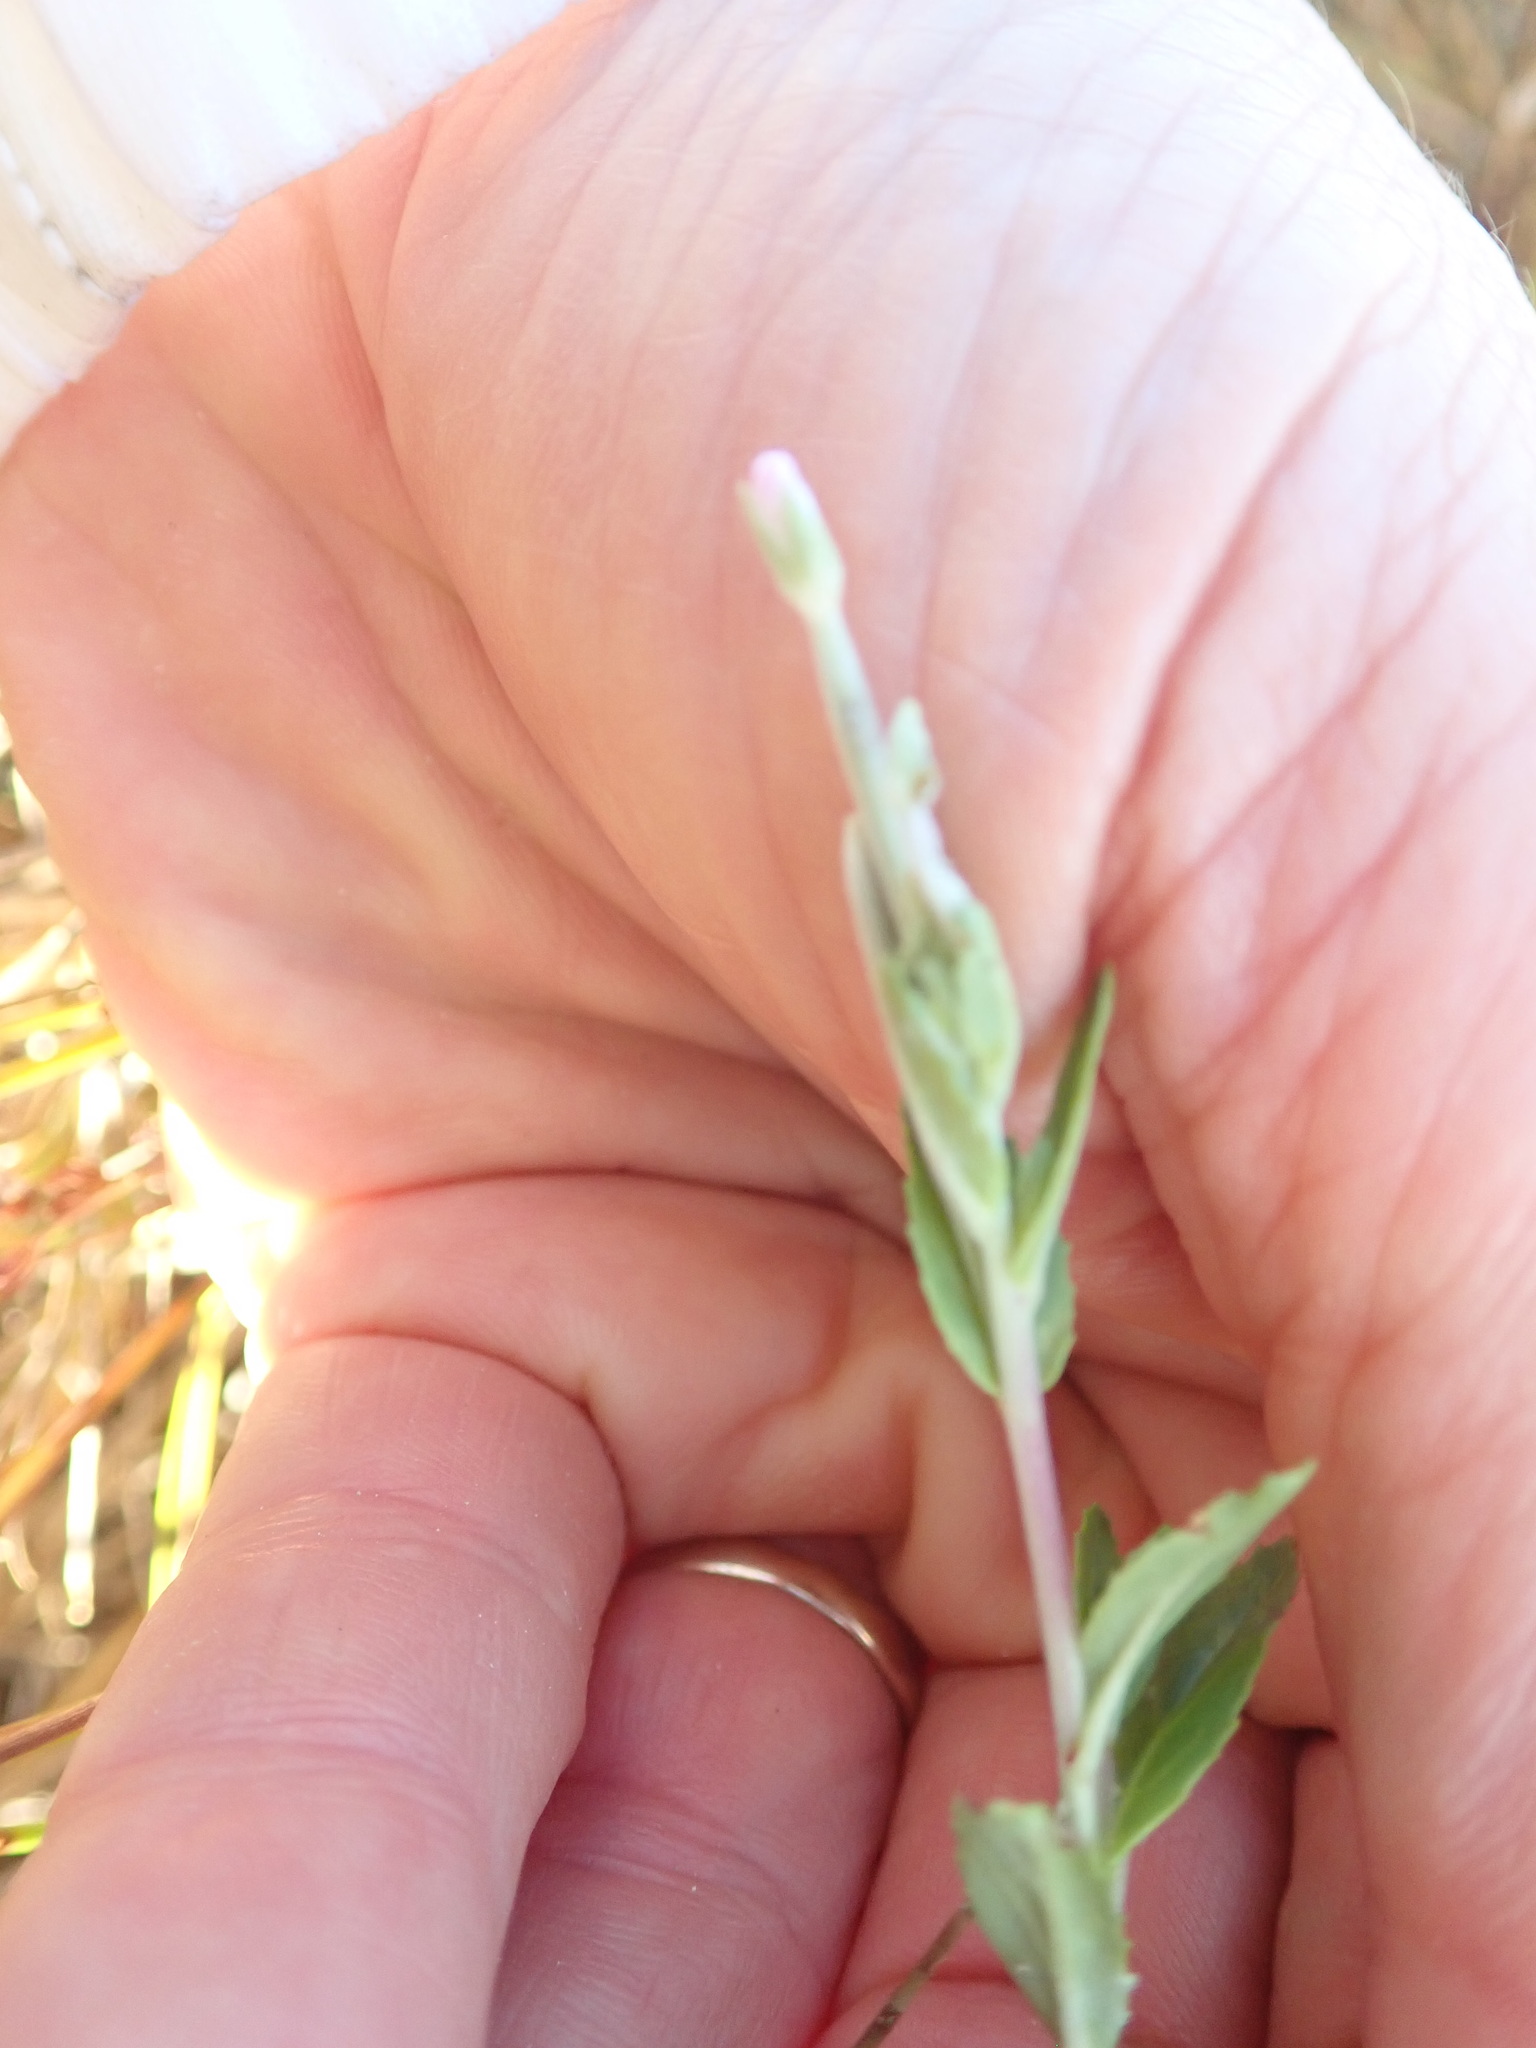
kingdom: Plantae
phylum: Tracheophyta
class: Magnoliopsida
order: Myrtales
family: Onagraceae
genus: Epilobium
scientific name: Epilobium billardiereanum
